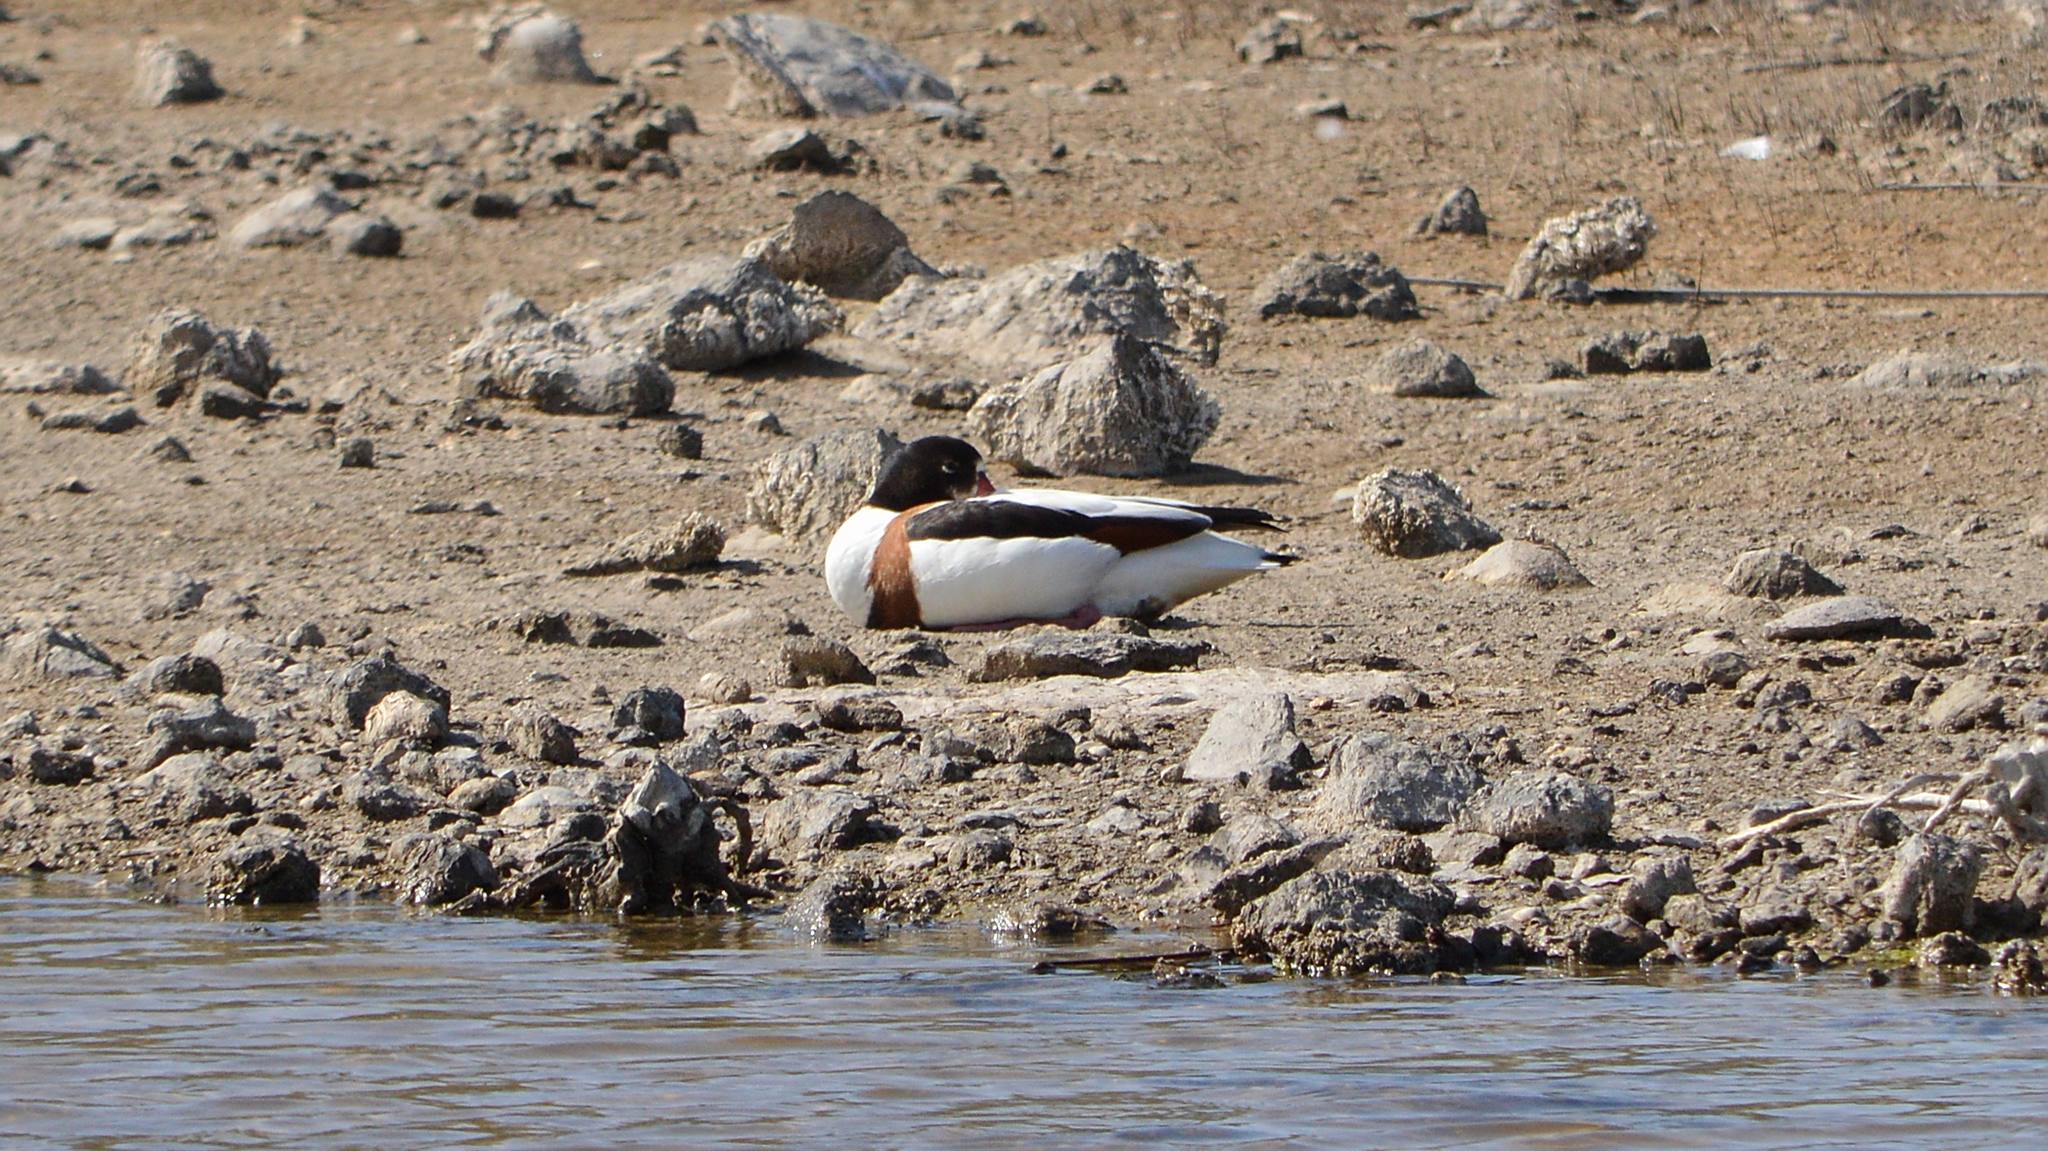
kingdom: Animalia
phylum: Chordata
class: Aves
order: Anseriformes
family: Anatidae
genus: Tadorna
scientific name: Tadorna tadorna
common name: Common shelduck
